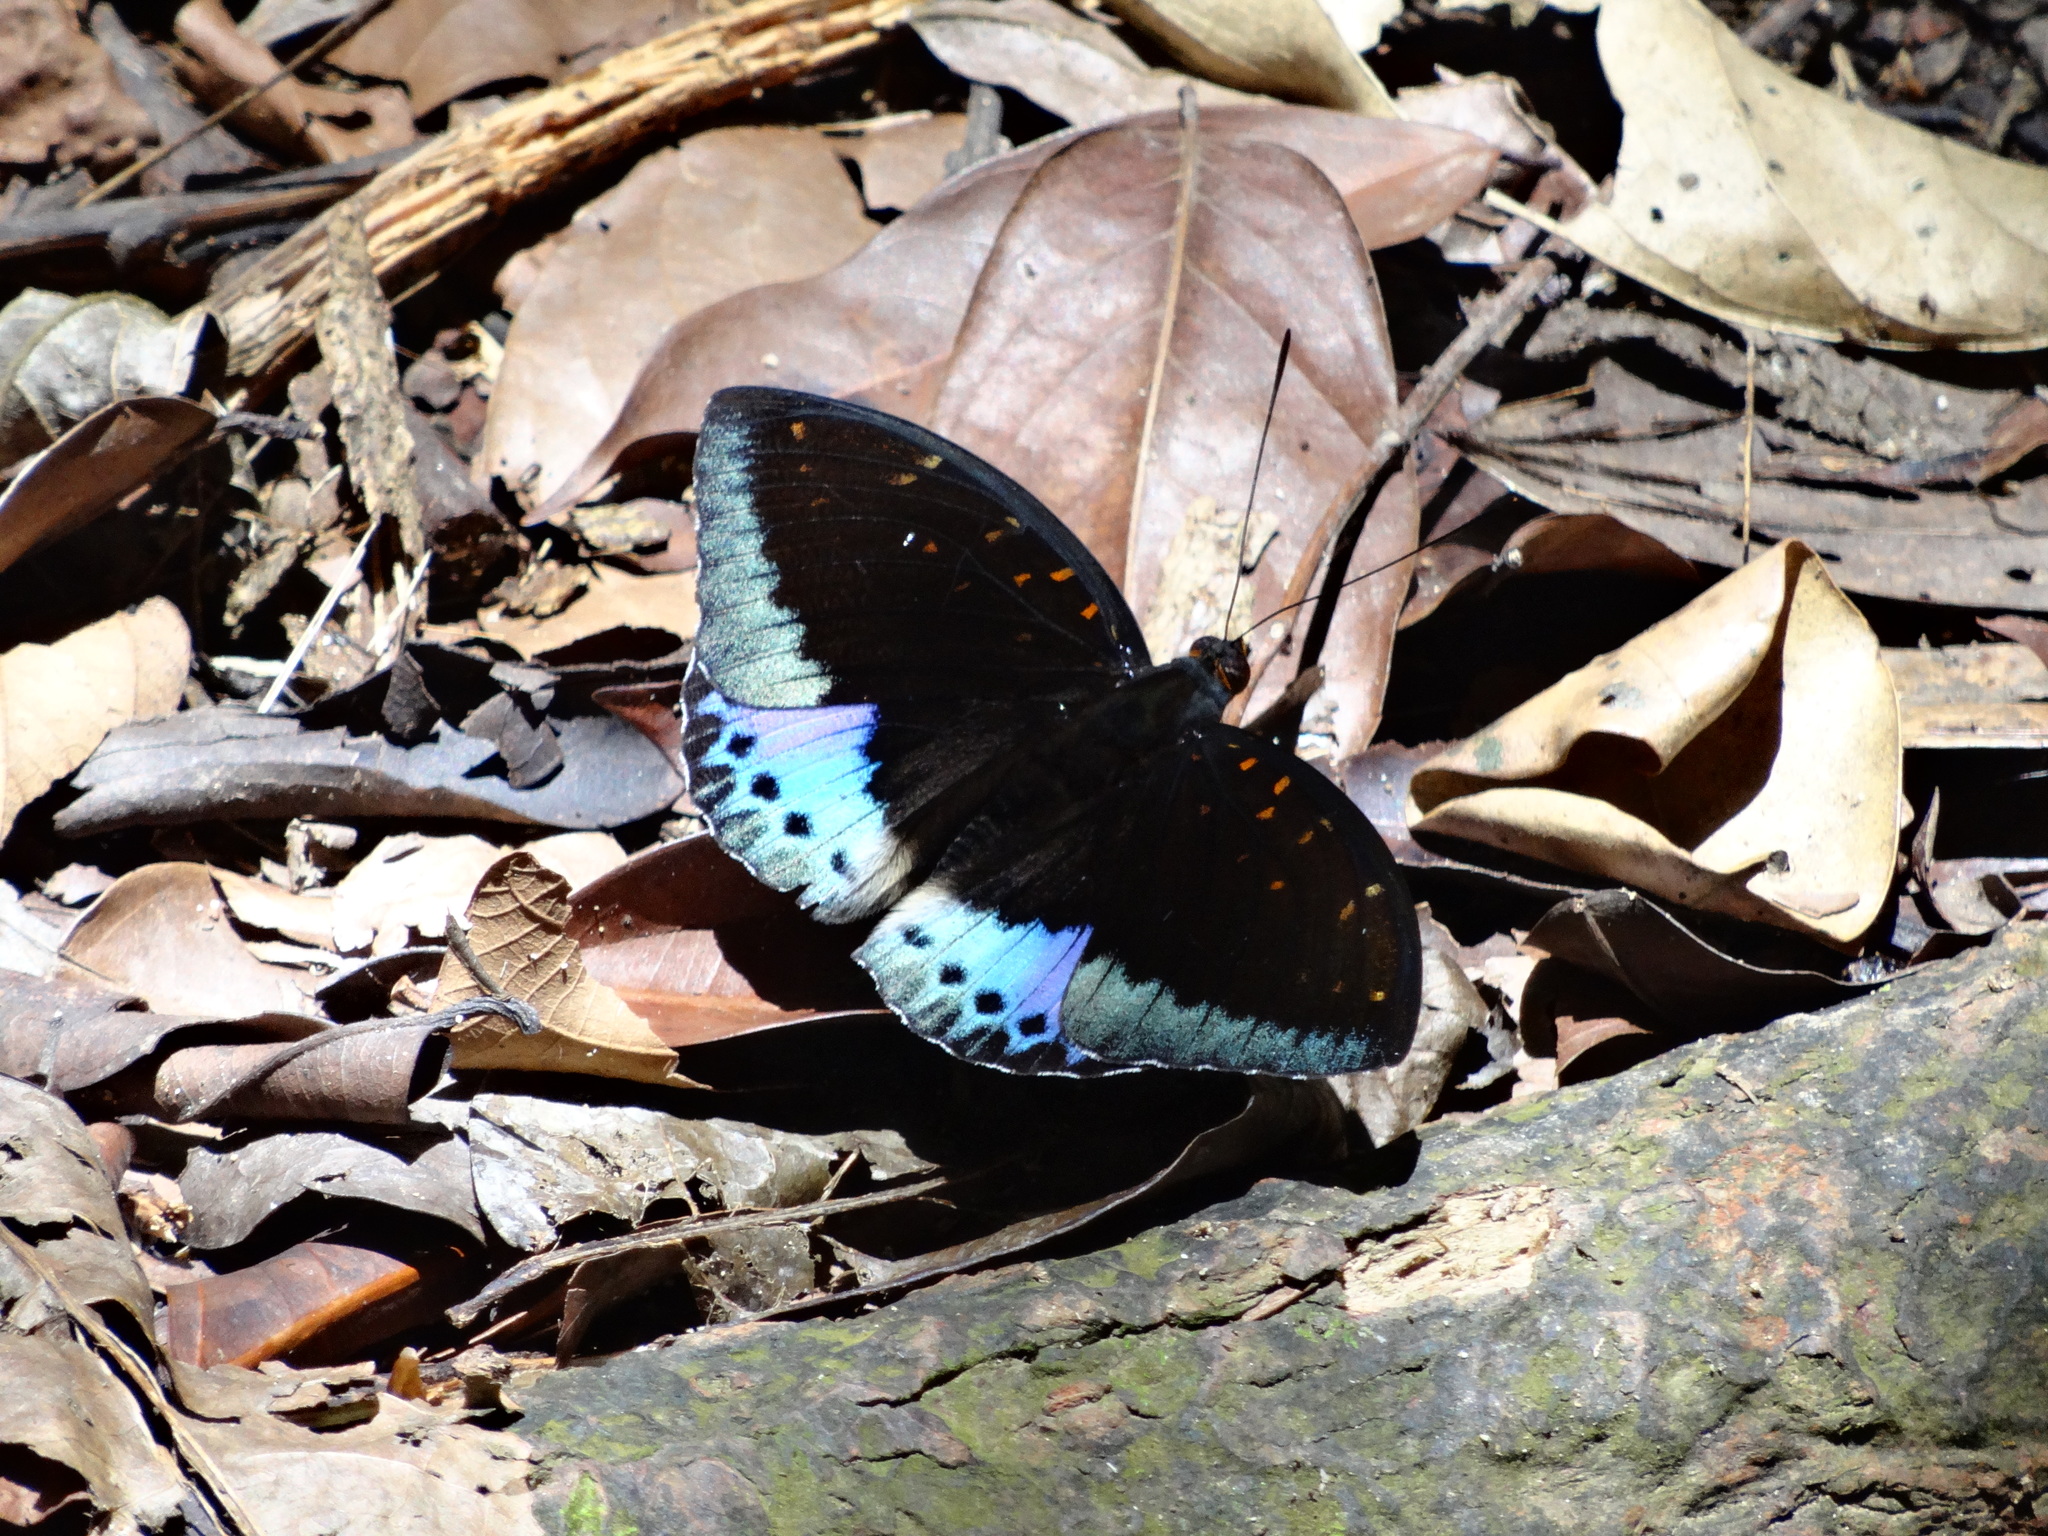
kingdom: Animalia
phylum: Arthropoda
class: Insecta
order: Lepidoptera
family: Nymphalidae
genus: Lexias
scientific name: Lexias dirtea
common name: Black-tipped archduke
